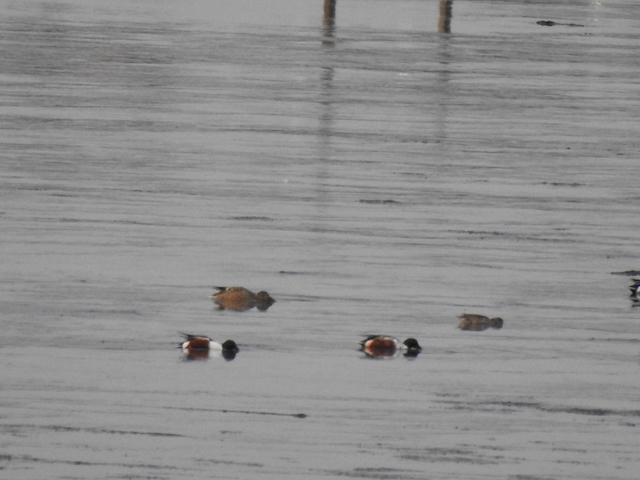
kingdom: Animalia
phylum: Chordata
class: Aves
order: Anseriformes
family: Anatidae
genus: Spatula
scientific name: Spatula clypeata
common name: Northern shoveler
